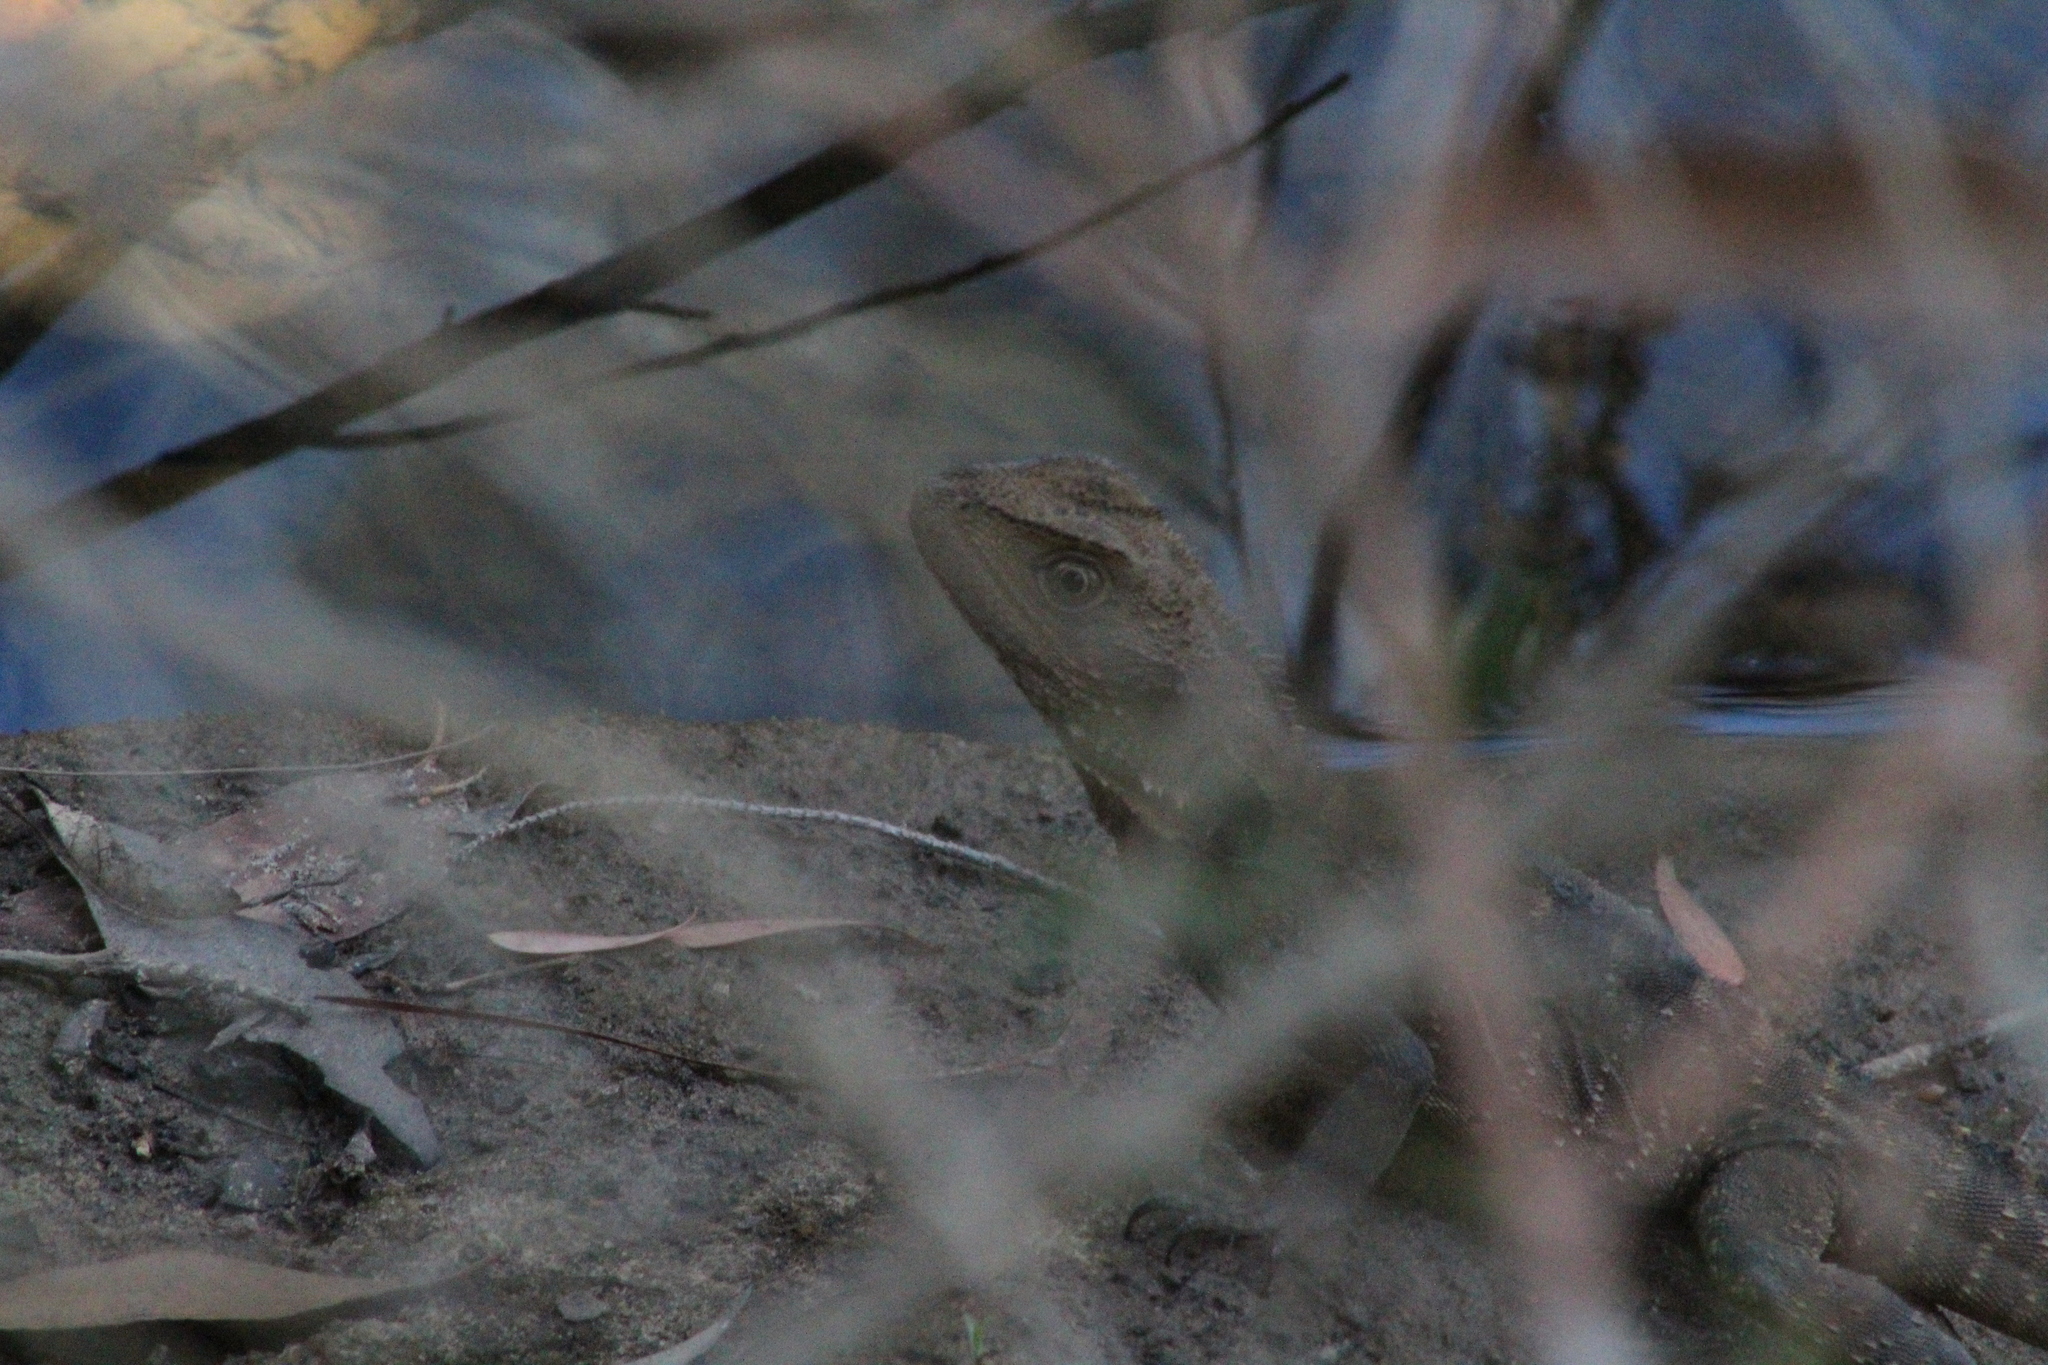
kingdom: Animalia
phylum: Chordata
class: Squamata
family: Agamidae
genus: Intellagama
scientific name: Intellagama lesueurii
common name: Eastern water dragon
